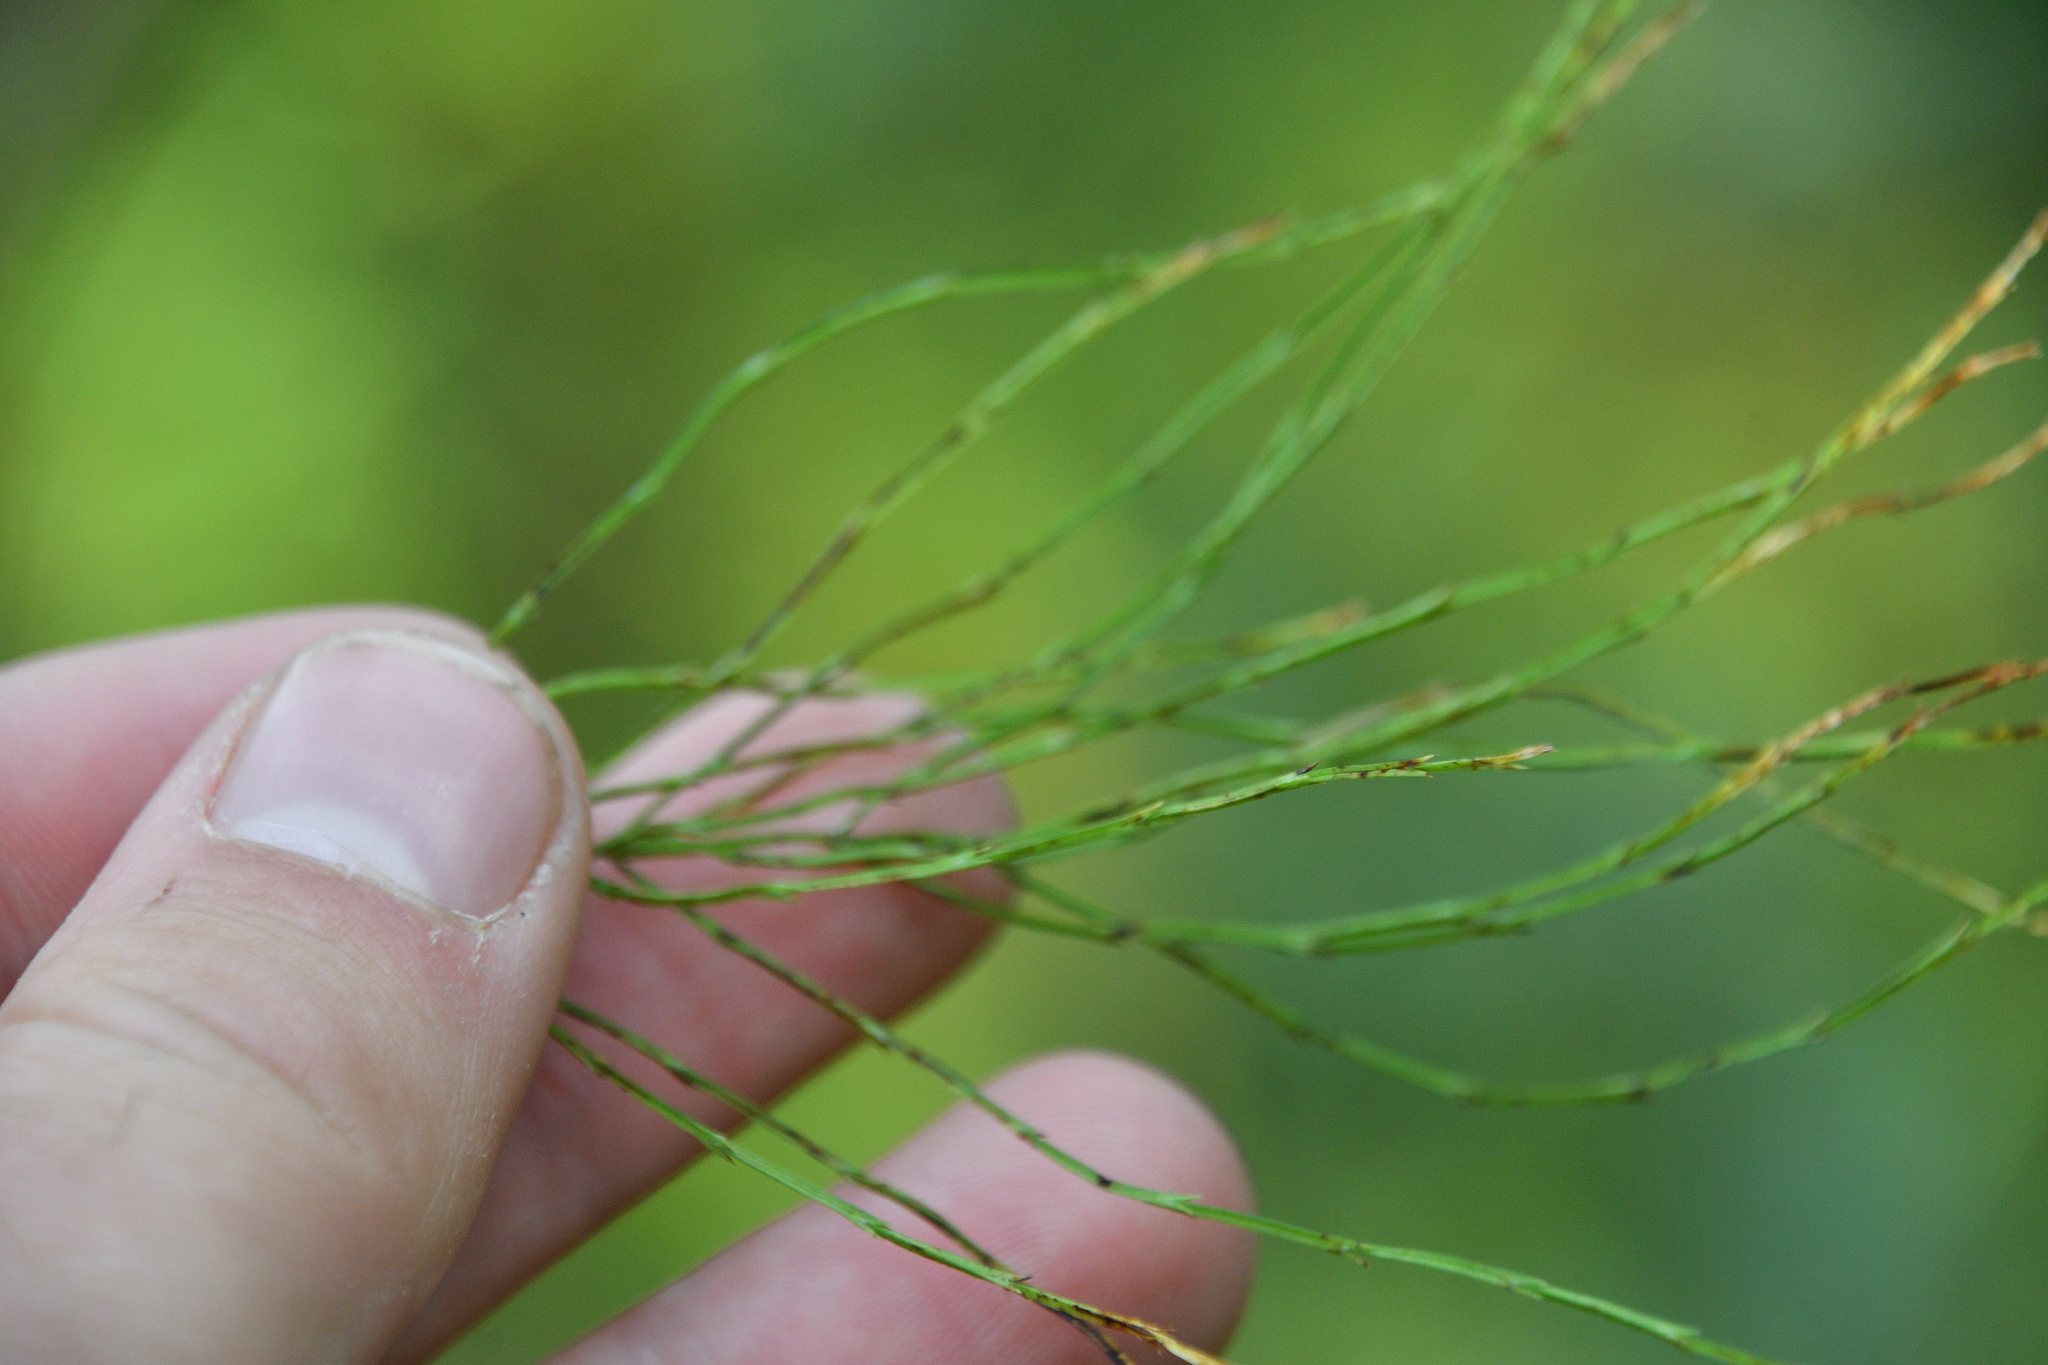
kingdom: Plantae
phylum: Tracheophyta
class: Polypodiopsida
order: Equisetales
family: Equisetaceae
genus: Equisetum
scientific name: Equisetum sylvaticum
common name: Wood horsetail
